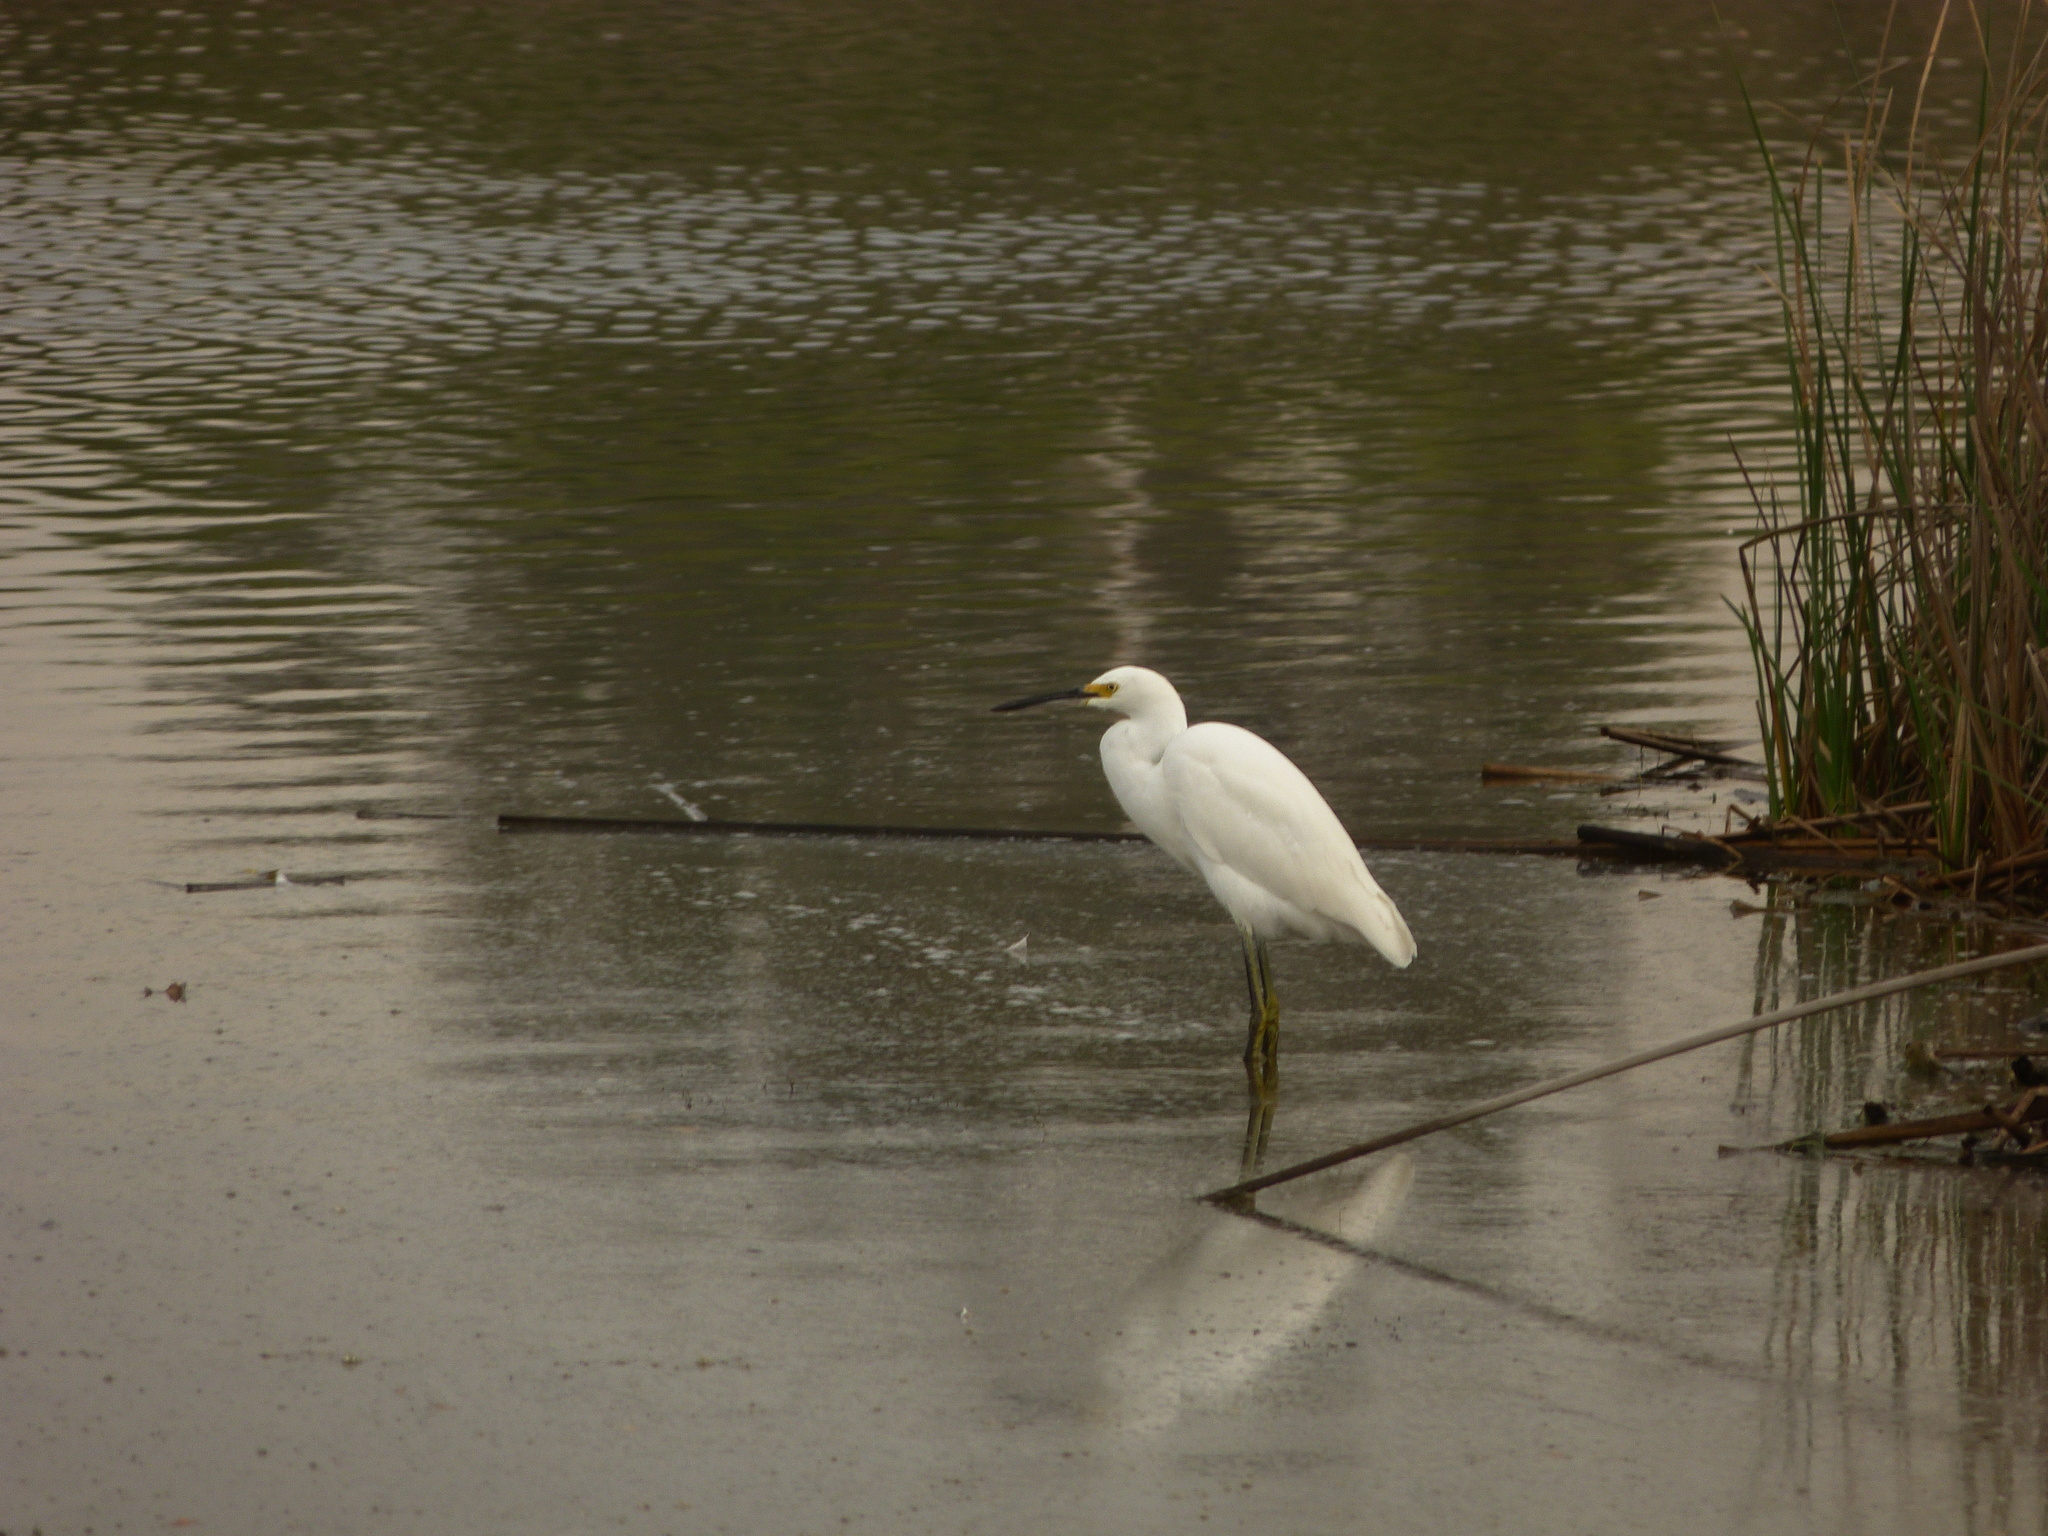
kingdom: Animalia
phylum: Chordata
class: Aves
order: Pelecaniformes
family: Ardeidae
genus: Egretta
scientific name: Egretta thula
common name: Snowy egret
